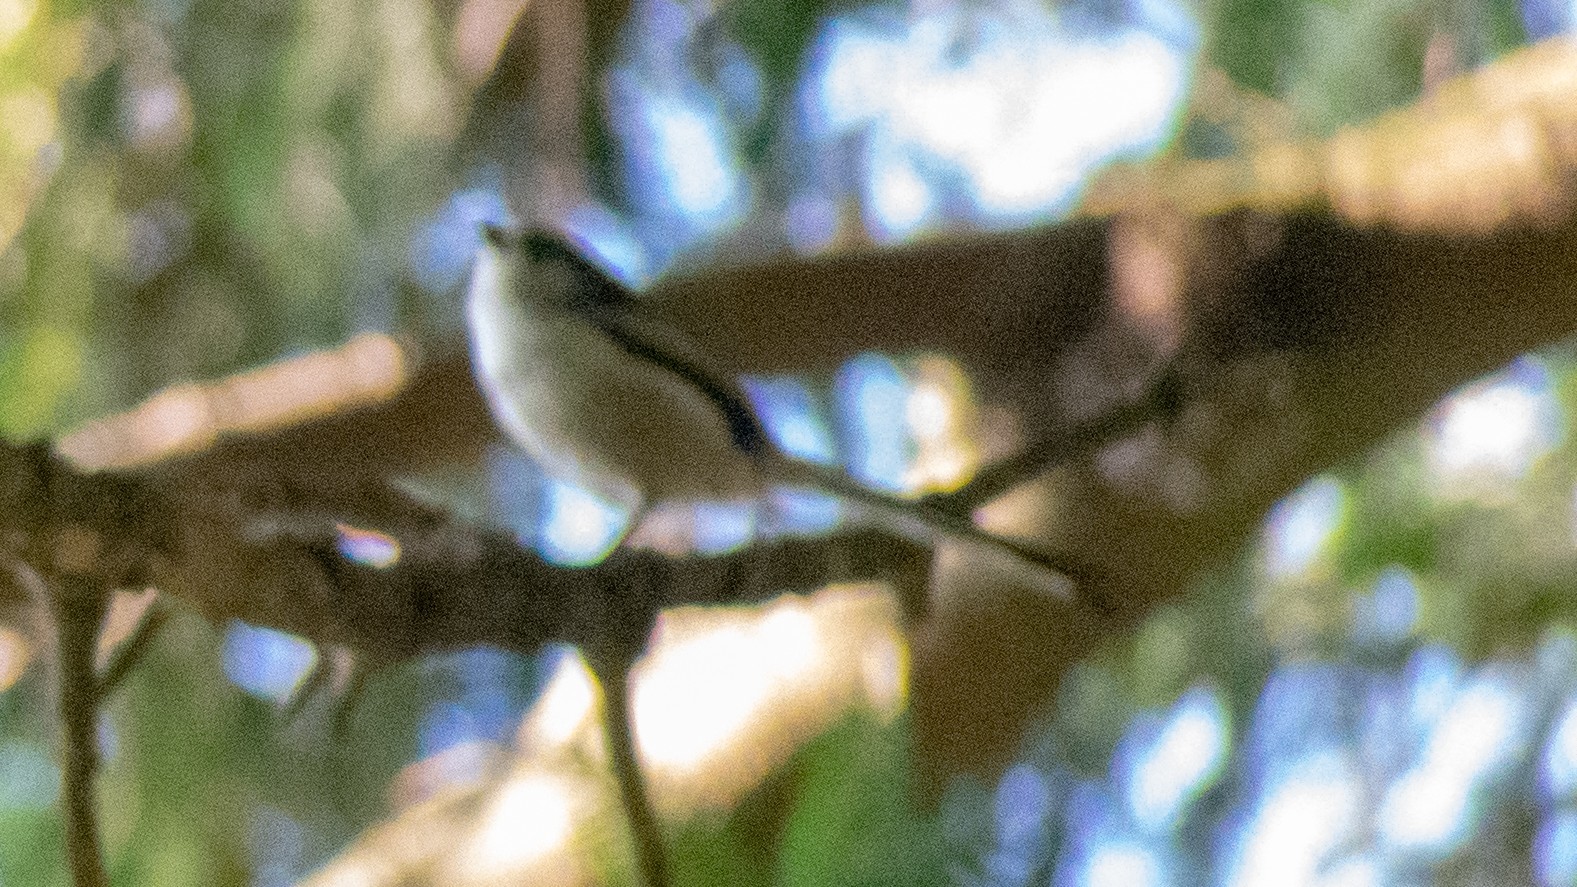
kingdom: Animalia
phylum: Chordata
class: Aves
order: Passeriformes
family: Aegithalidae
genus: Aegithalos
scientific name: Aegithalos caudatus
